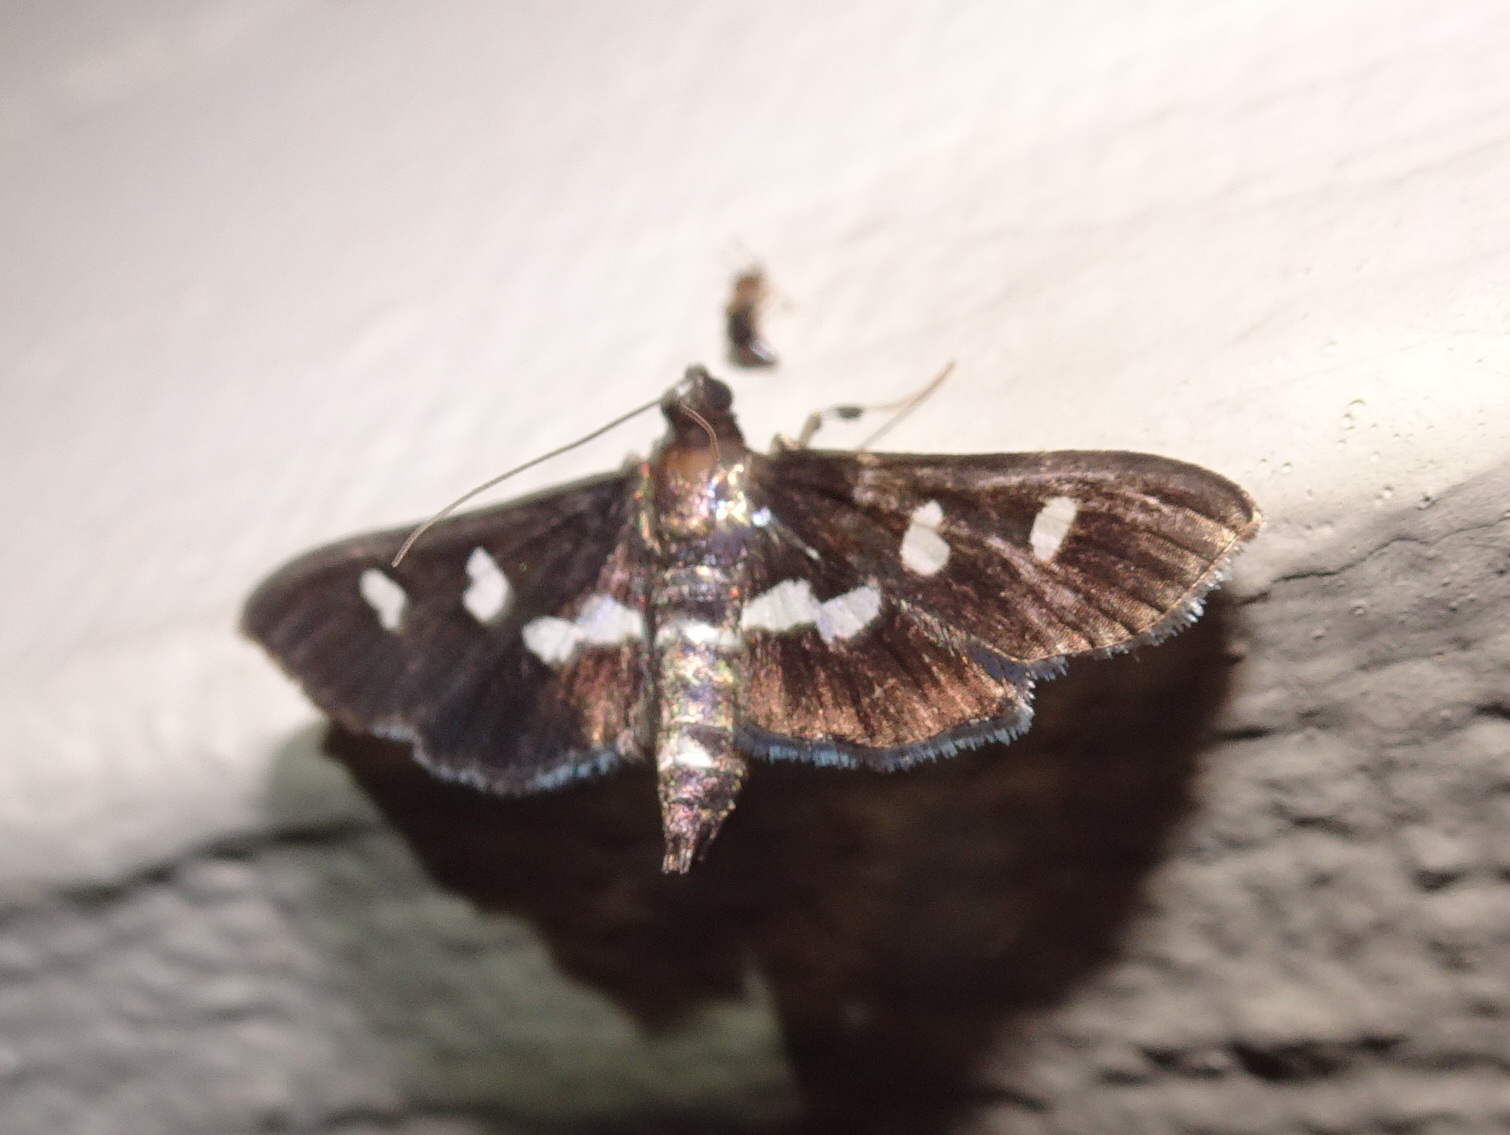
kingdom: Animalia
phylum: Arthropoda
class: Insecta
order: Lepidoptera
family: Crambidae
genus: Desmia
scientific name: Desmia
